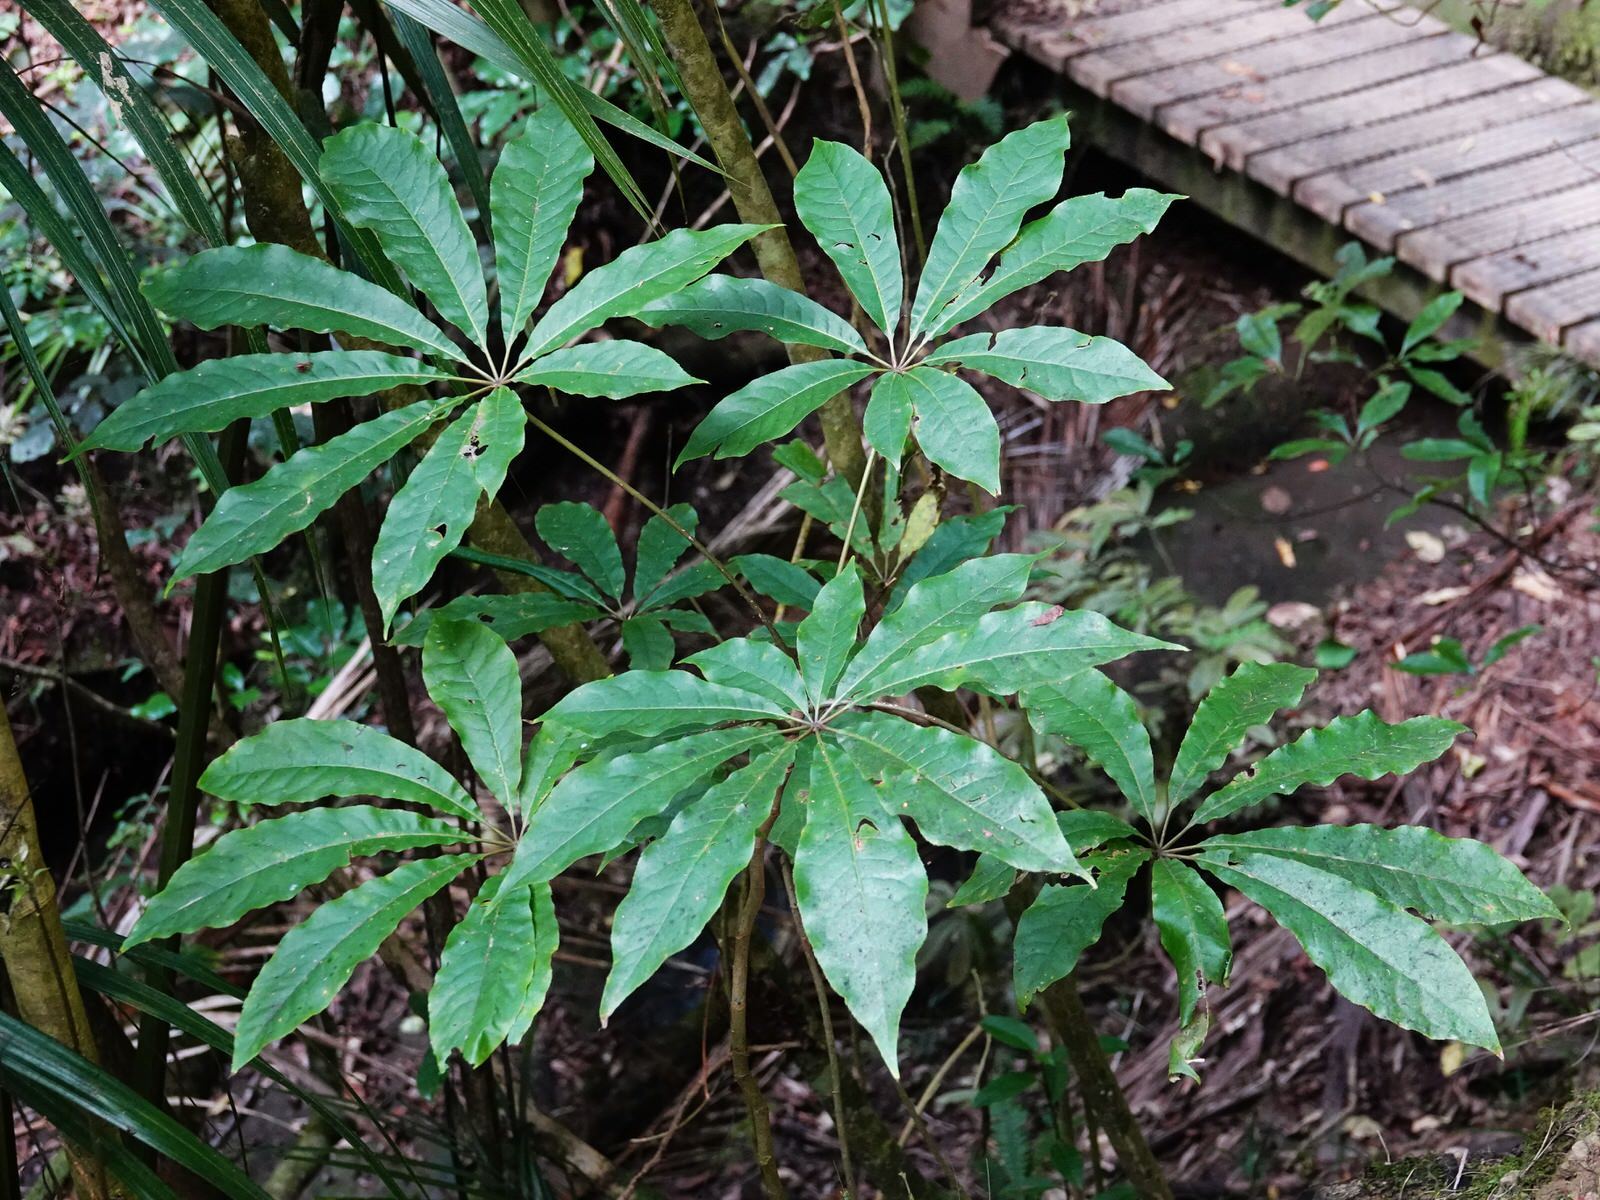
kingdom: Plantae
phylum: Tracheophyta
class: Magnoliopsida
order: Apiales
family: Araliaceae
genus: Schefflera
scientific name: Schefflera digitata
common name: Pate
